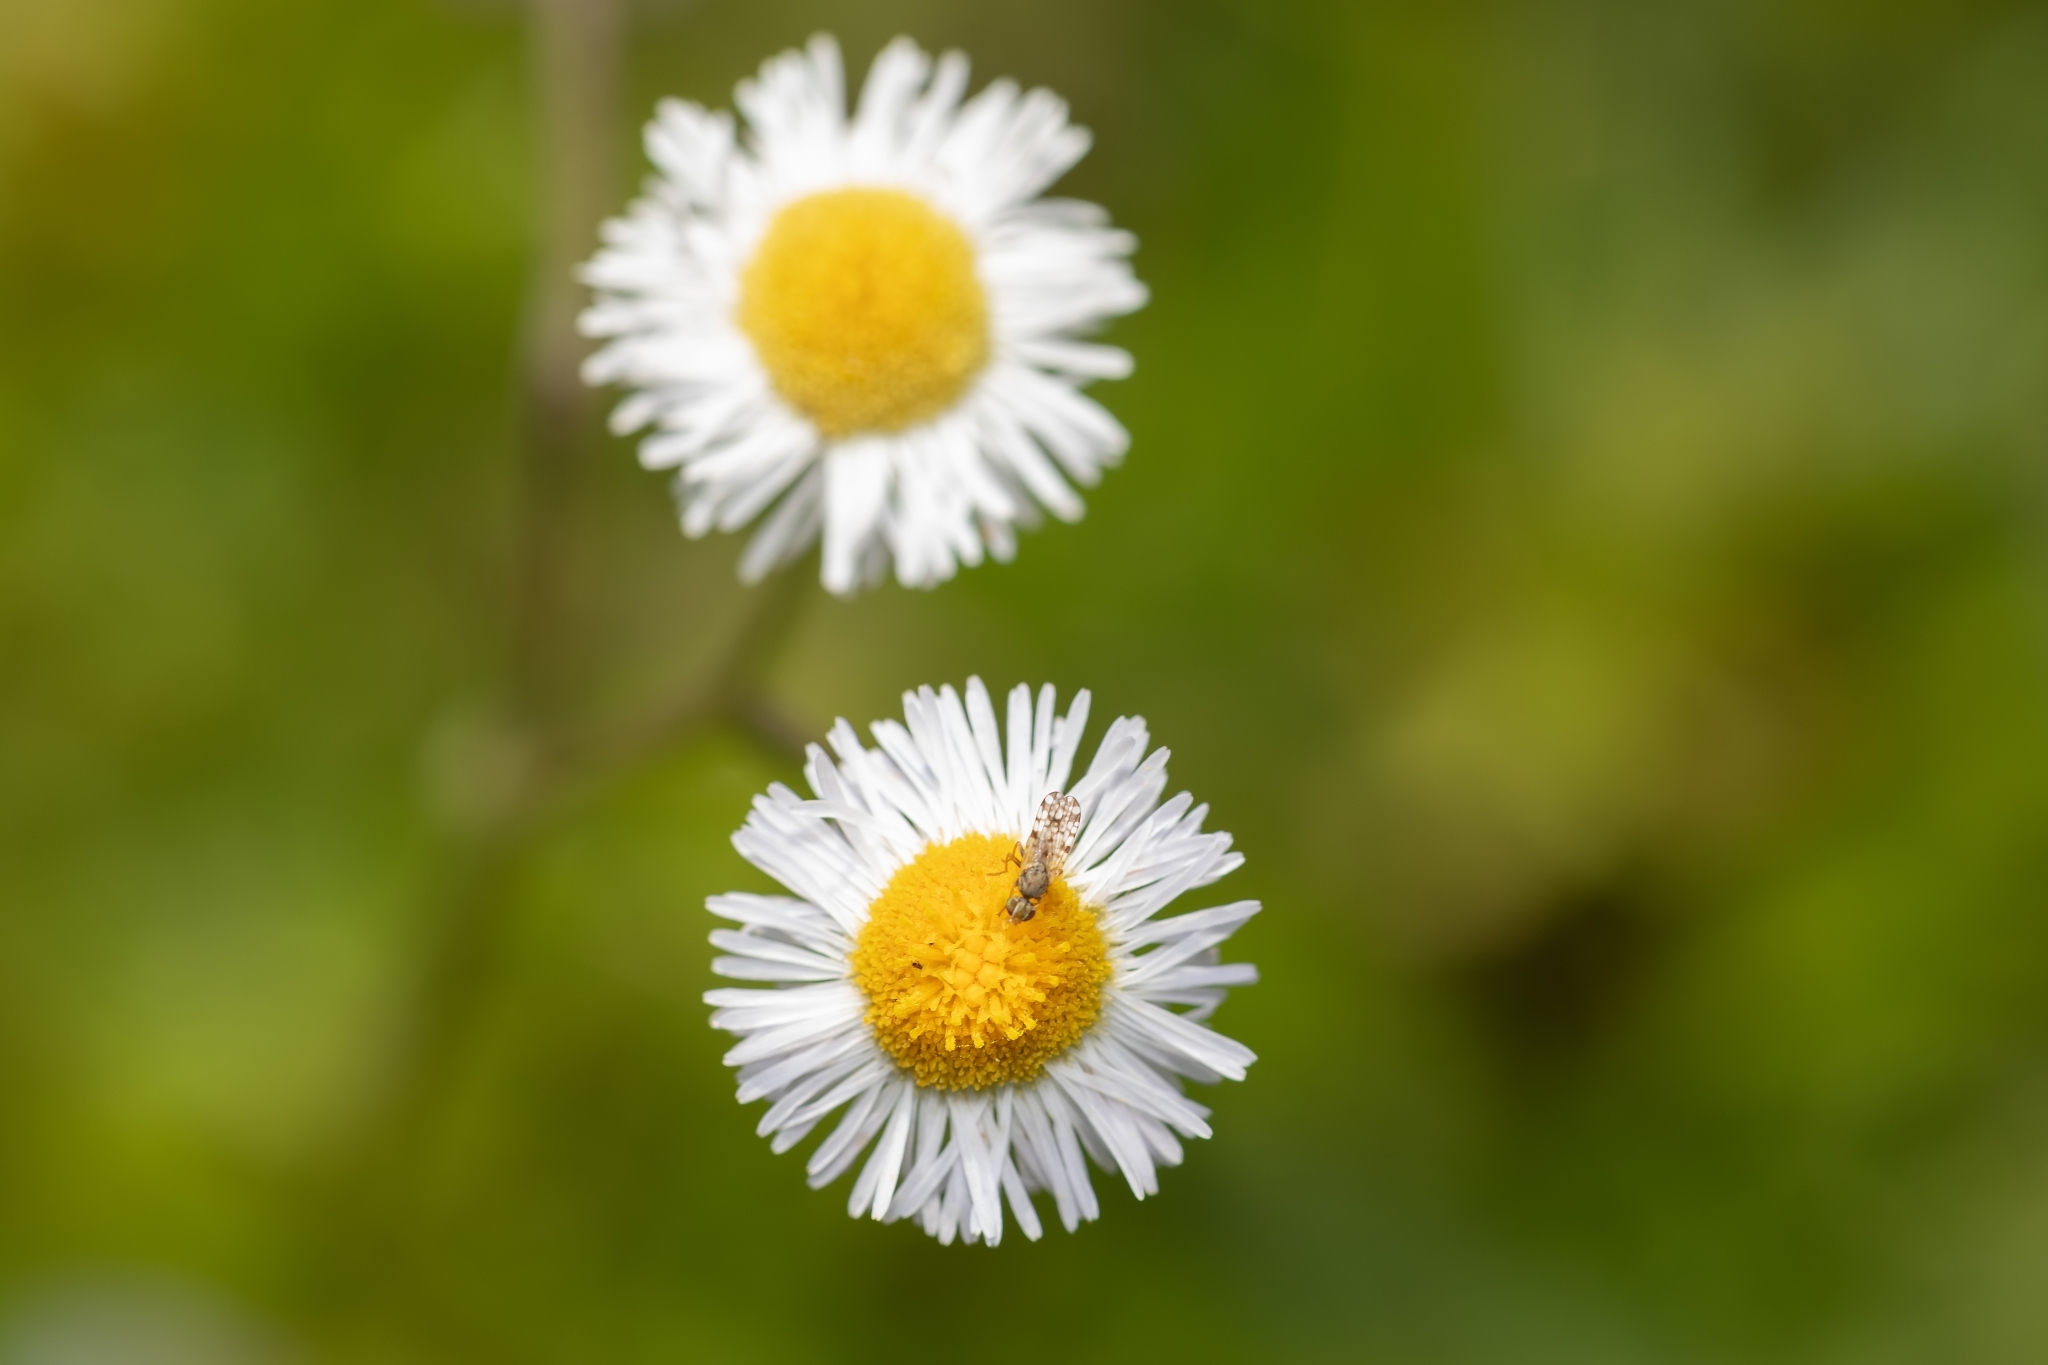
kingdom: Animalia
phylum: Arthropoda
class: Insecta
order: Diptera
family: Tephritidae
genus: Dioxyna
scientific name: Dioxyna picciola
